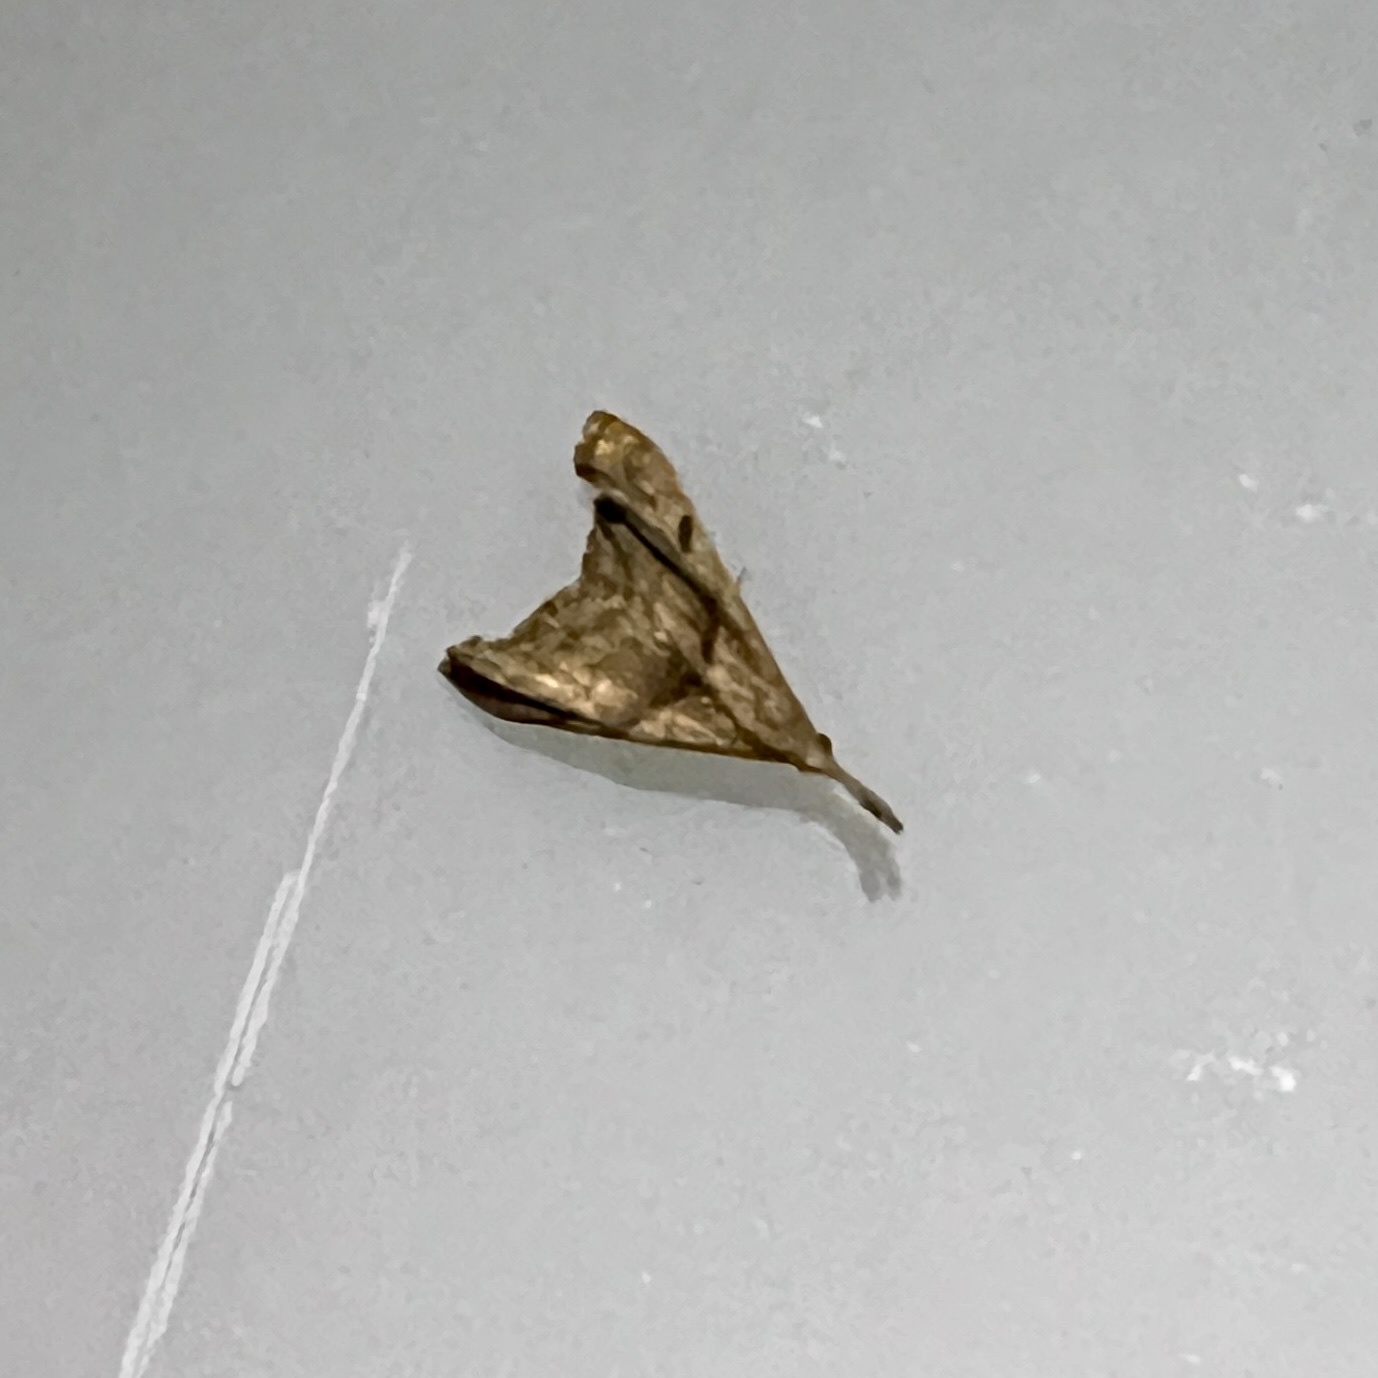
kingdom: Animalia
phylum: Arthropoda
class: Insecta
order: Lepidoptera
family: Erebidae
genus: Palthis
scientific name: Palthis angulalis
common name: Dark-spotted palthis moth
